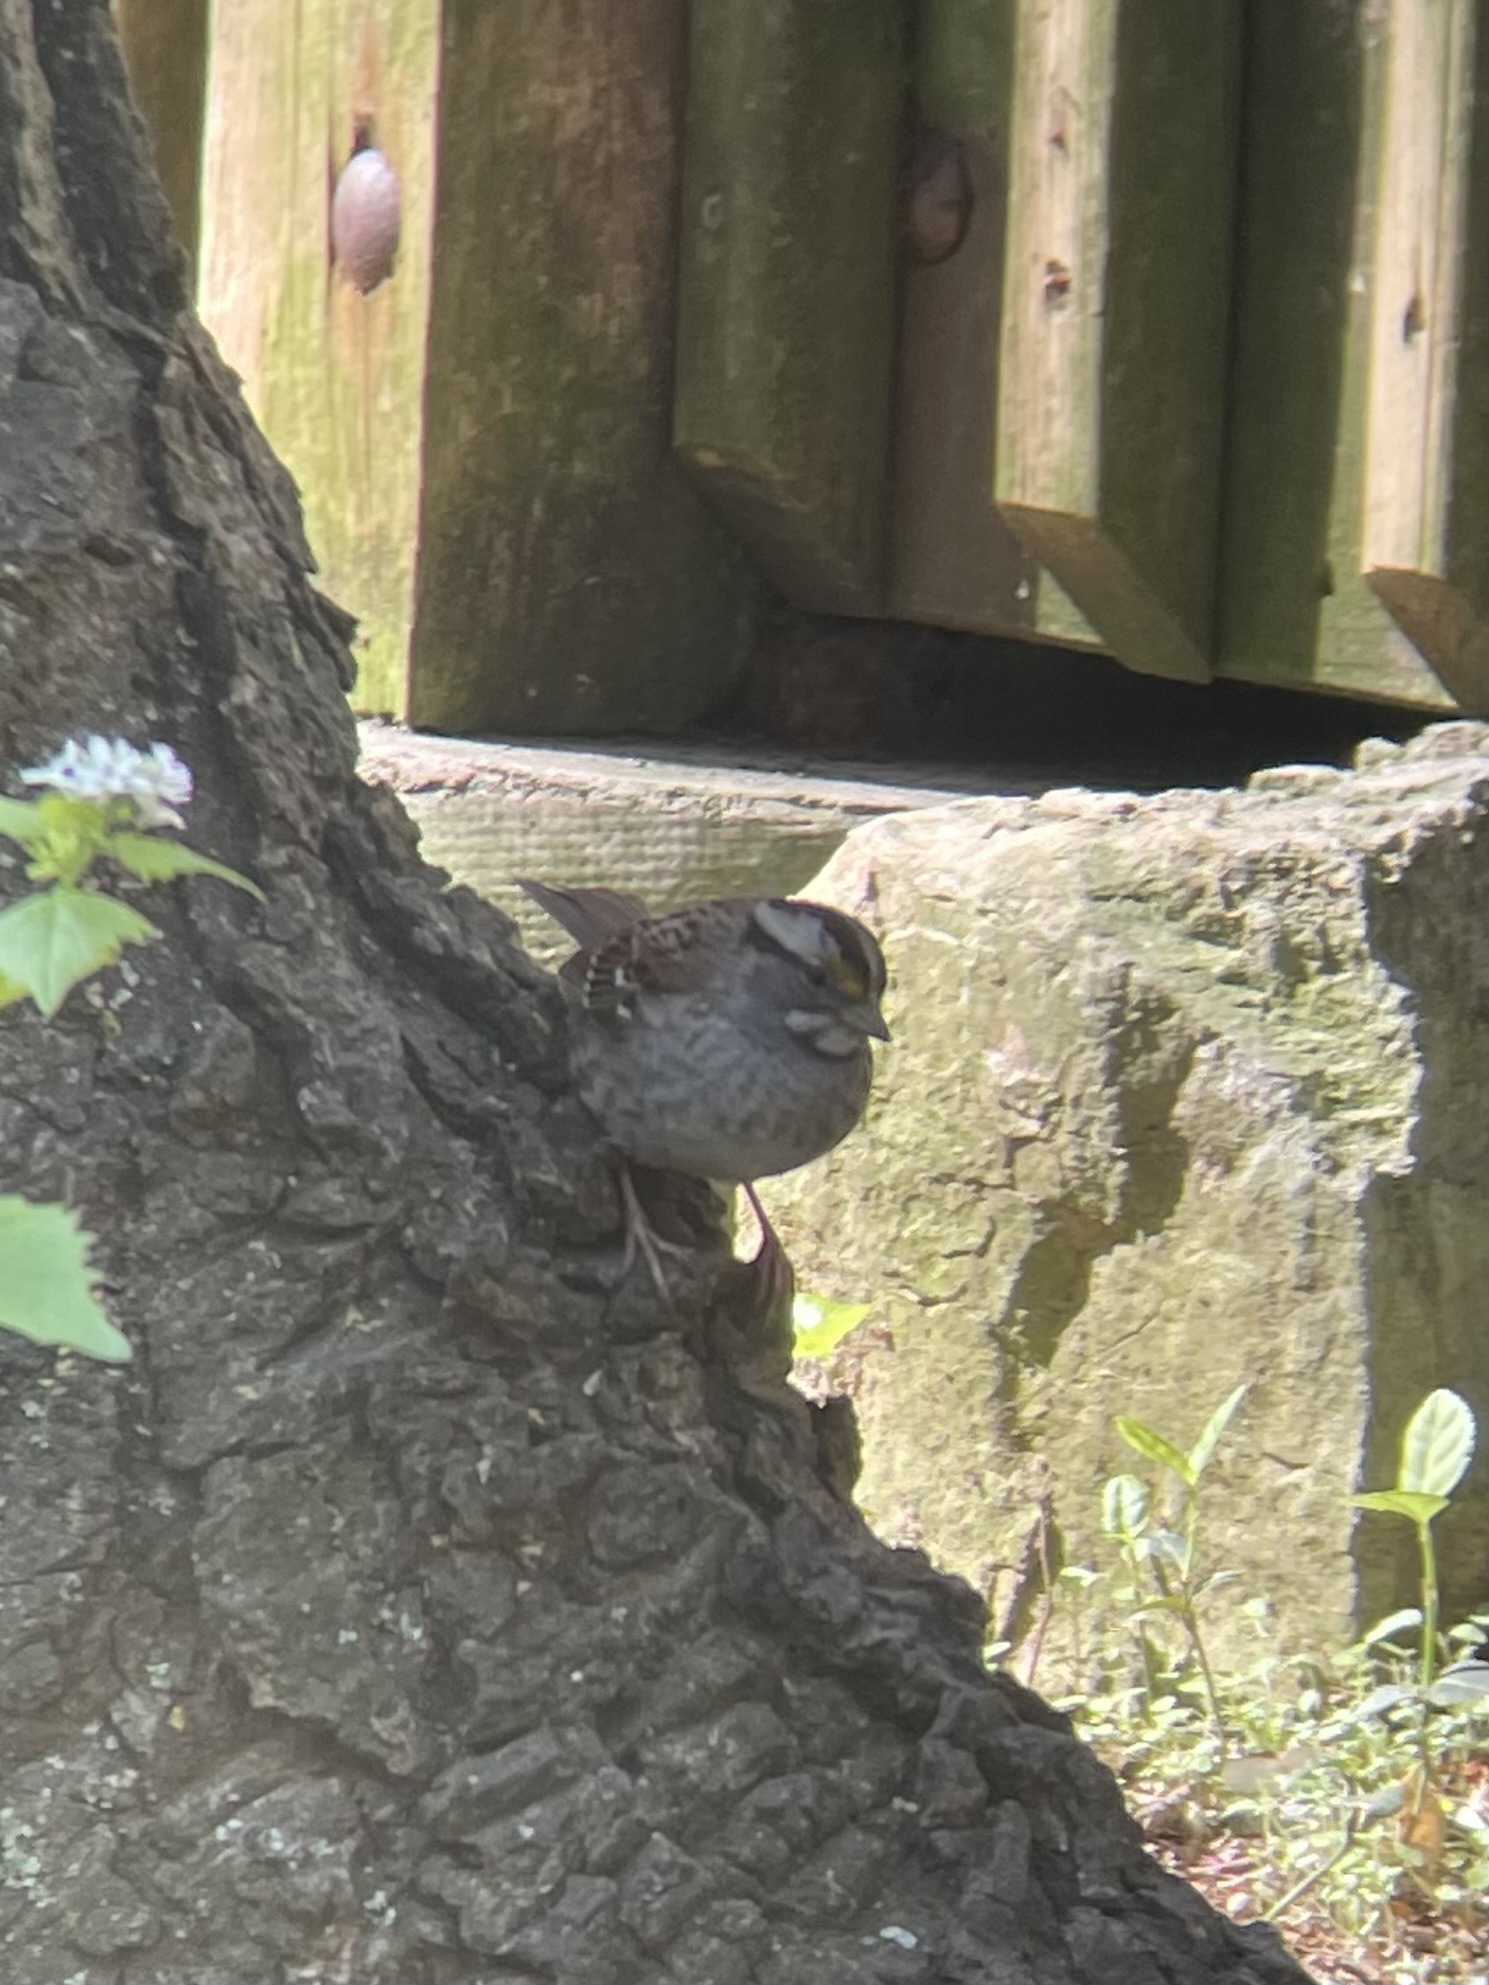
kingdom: Animalia
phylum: Chordata
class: Aves
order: Passeriformes
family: Passerellidae
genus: Zonotrichia
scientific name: Zonotrichia albicollis
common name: White-throated sparrow
